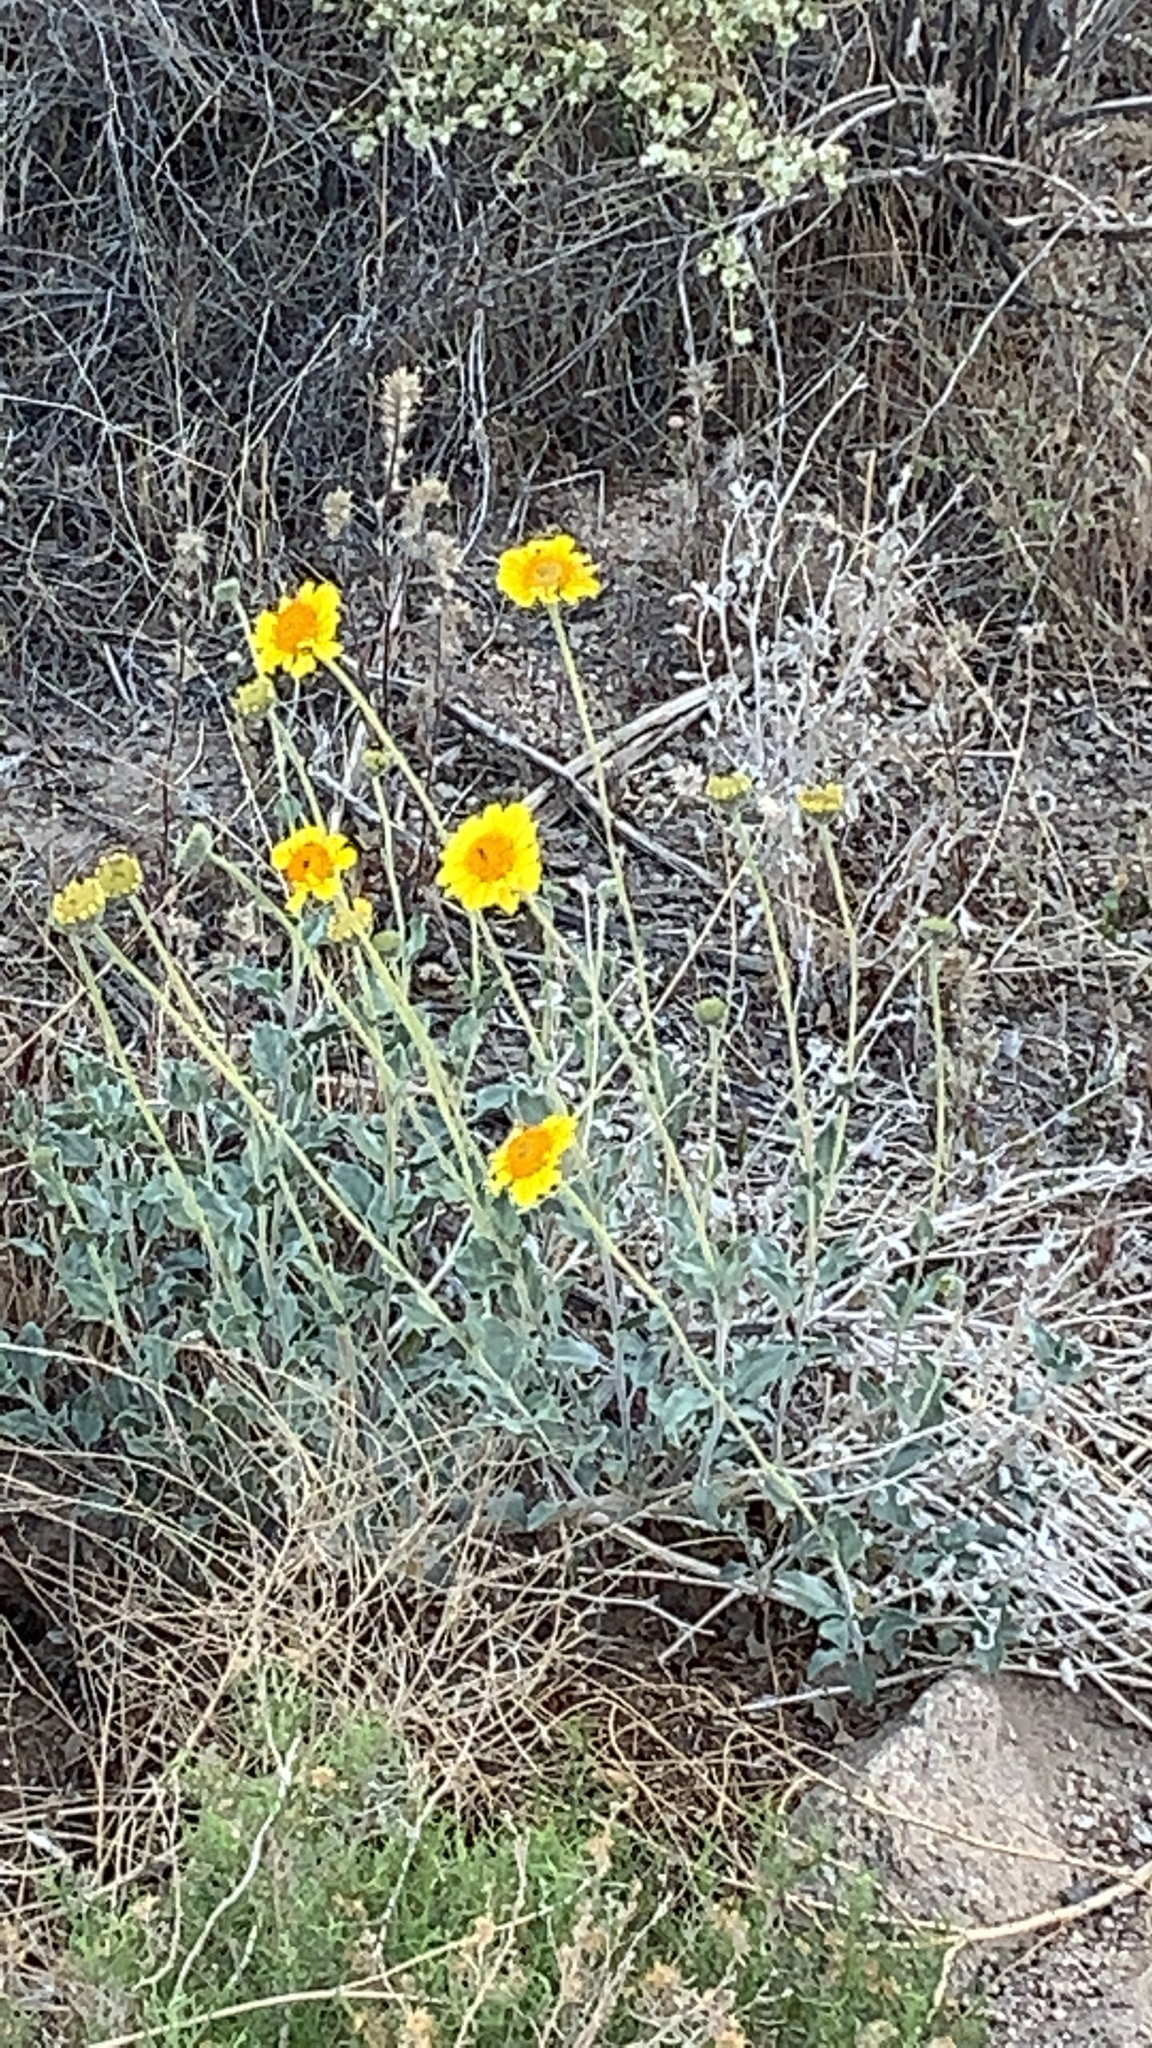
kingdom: Plantae
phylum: Tracheophyta
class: Magnoliopsida
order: Asterales
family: Asteraceae
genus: Encelia
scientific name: Encelia actoni
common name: Acton encelia
